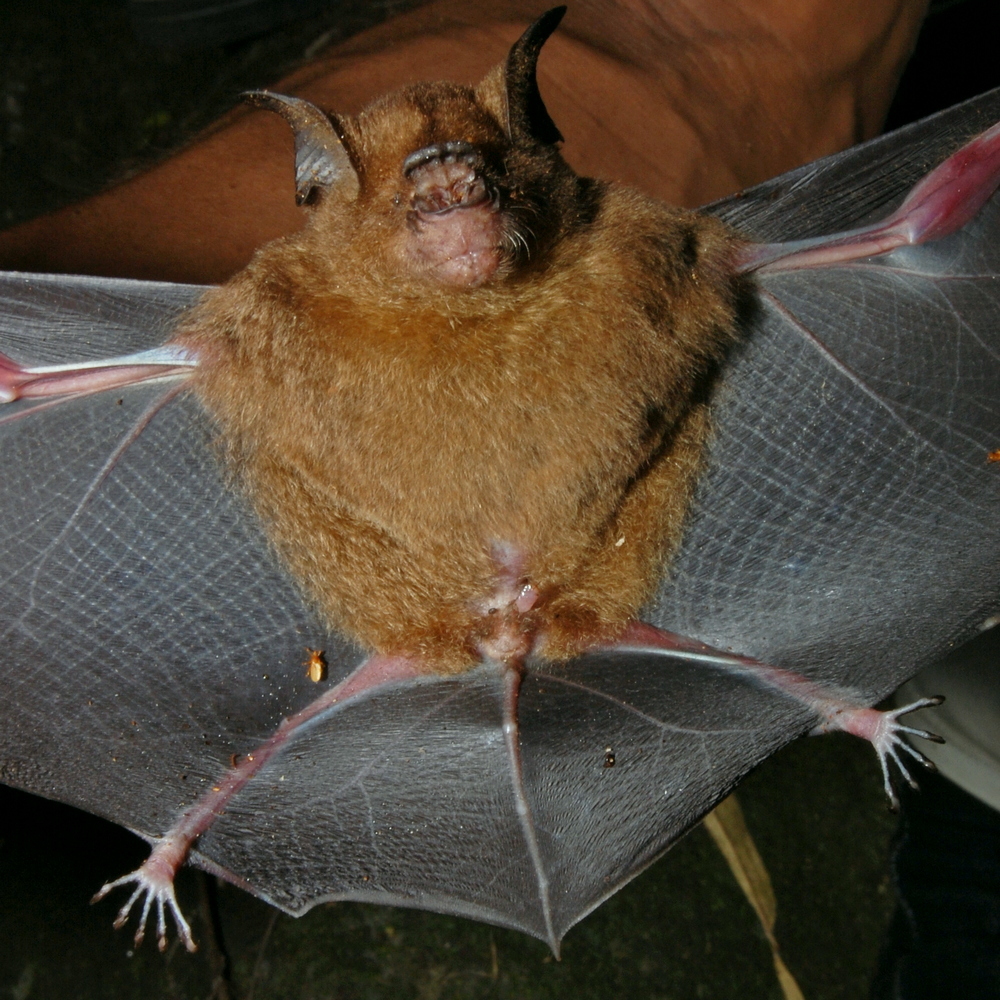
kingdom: Animalia
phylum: Chordata
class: Mammalia
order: Chiroptera
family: Hipposideridae
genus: Hipposideros
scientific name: Hipposideros larvatus
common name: Intermediate leaf-nosed bat
